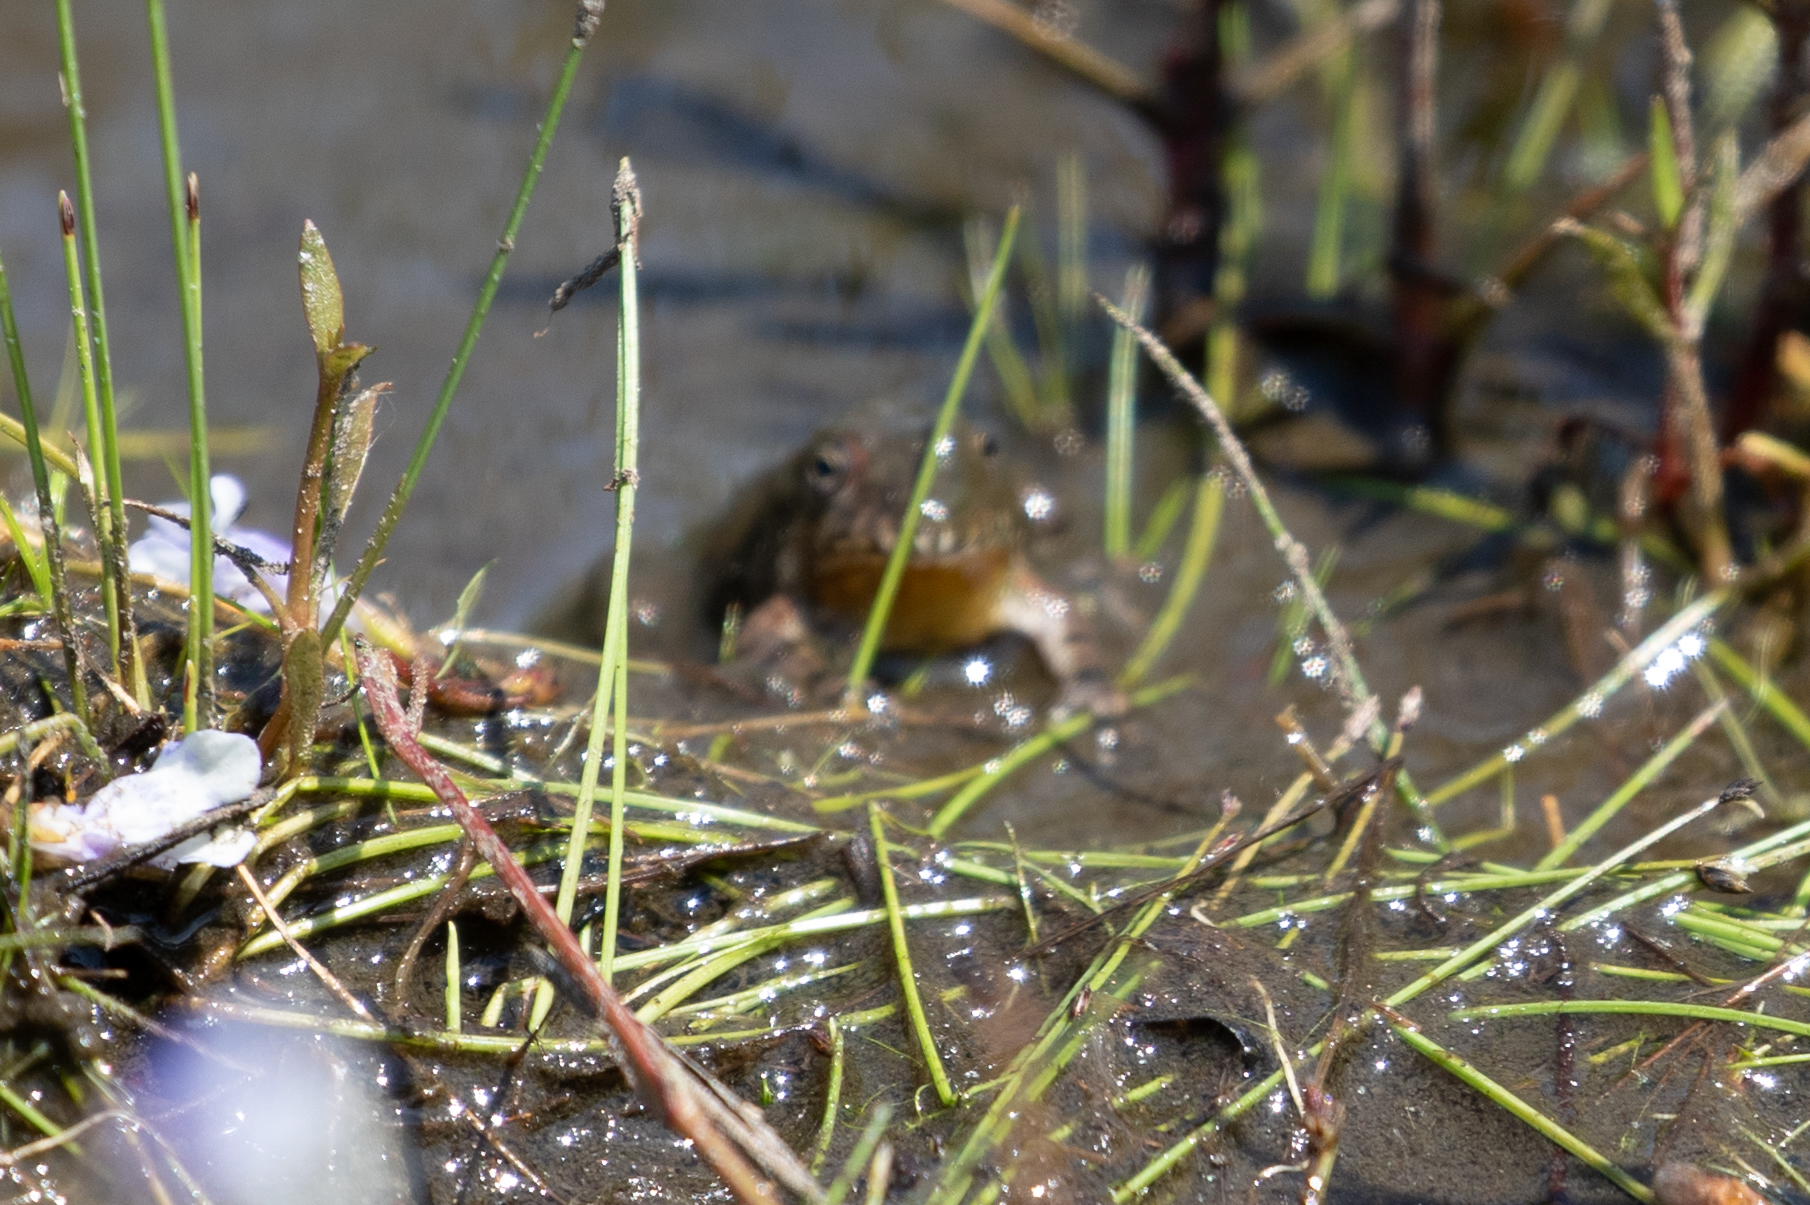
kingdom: Animalia
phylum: Chordata
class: Amphibia
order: Anura
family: Hylidae
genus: Acris
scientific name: Acris crepitans
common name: Northern cricket frog
